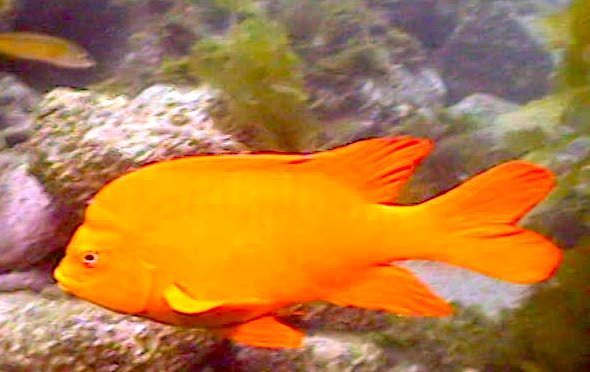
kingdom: Animalia
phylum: Chordata
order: Perciformes
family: Pomacentridae
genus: Hypsypops
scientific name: Hypsypops rubicundus
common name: Garibaldi
